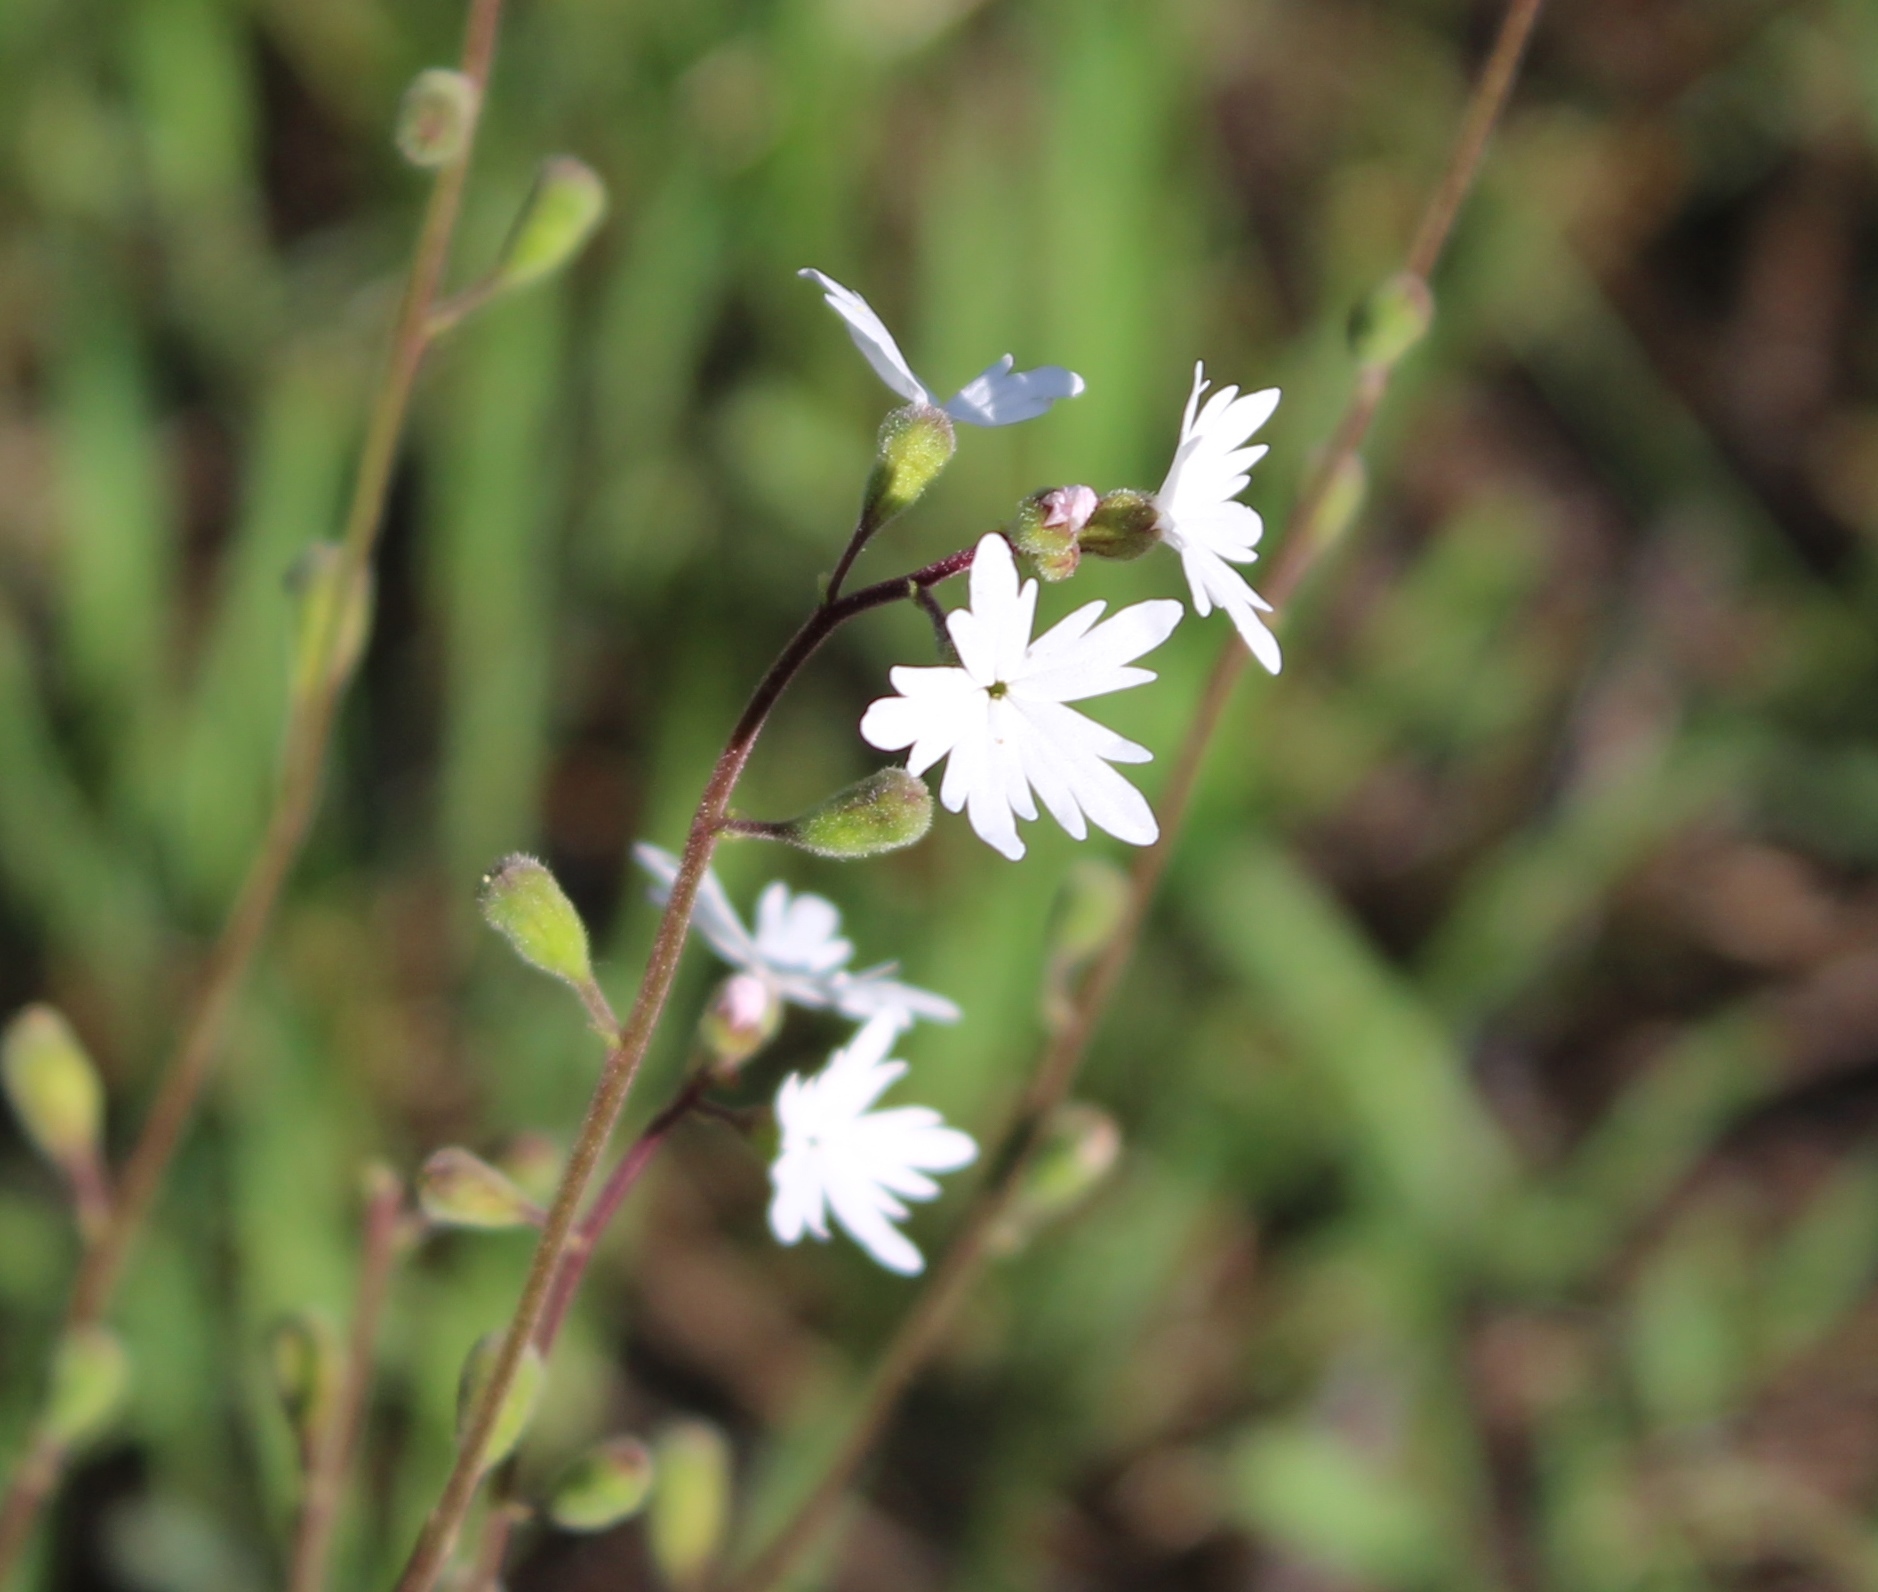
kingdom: Plantae
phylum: Tracheophyta
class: Magnoliopsida
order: Saxifragales
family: Saxifragaceae
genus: Lithophragma
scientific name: Lithophragma parviflorum
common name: Small-flowered fringe-cup
